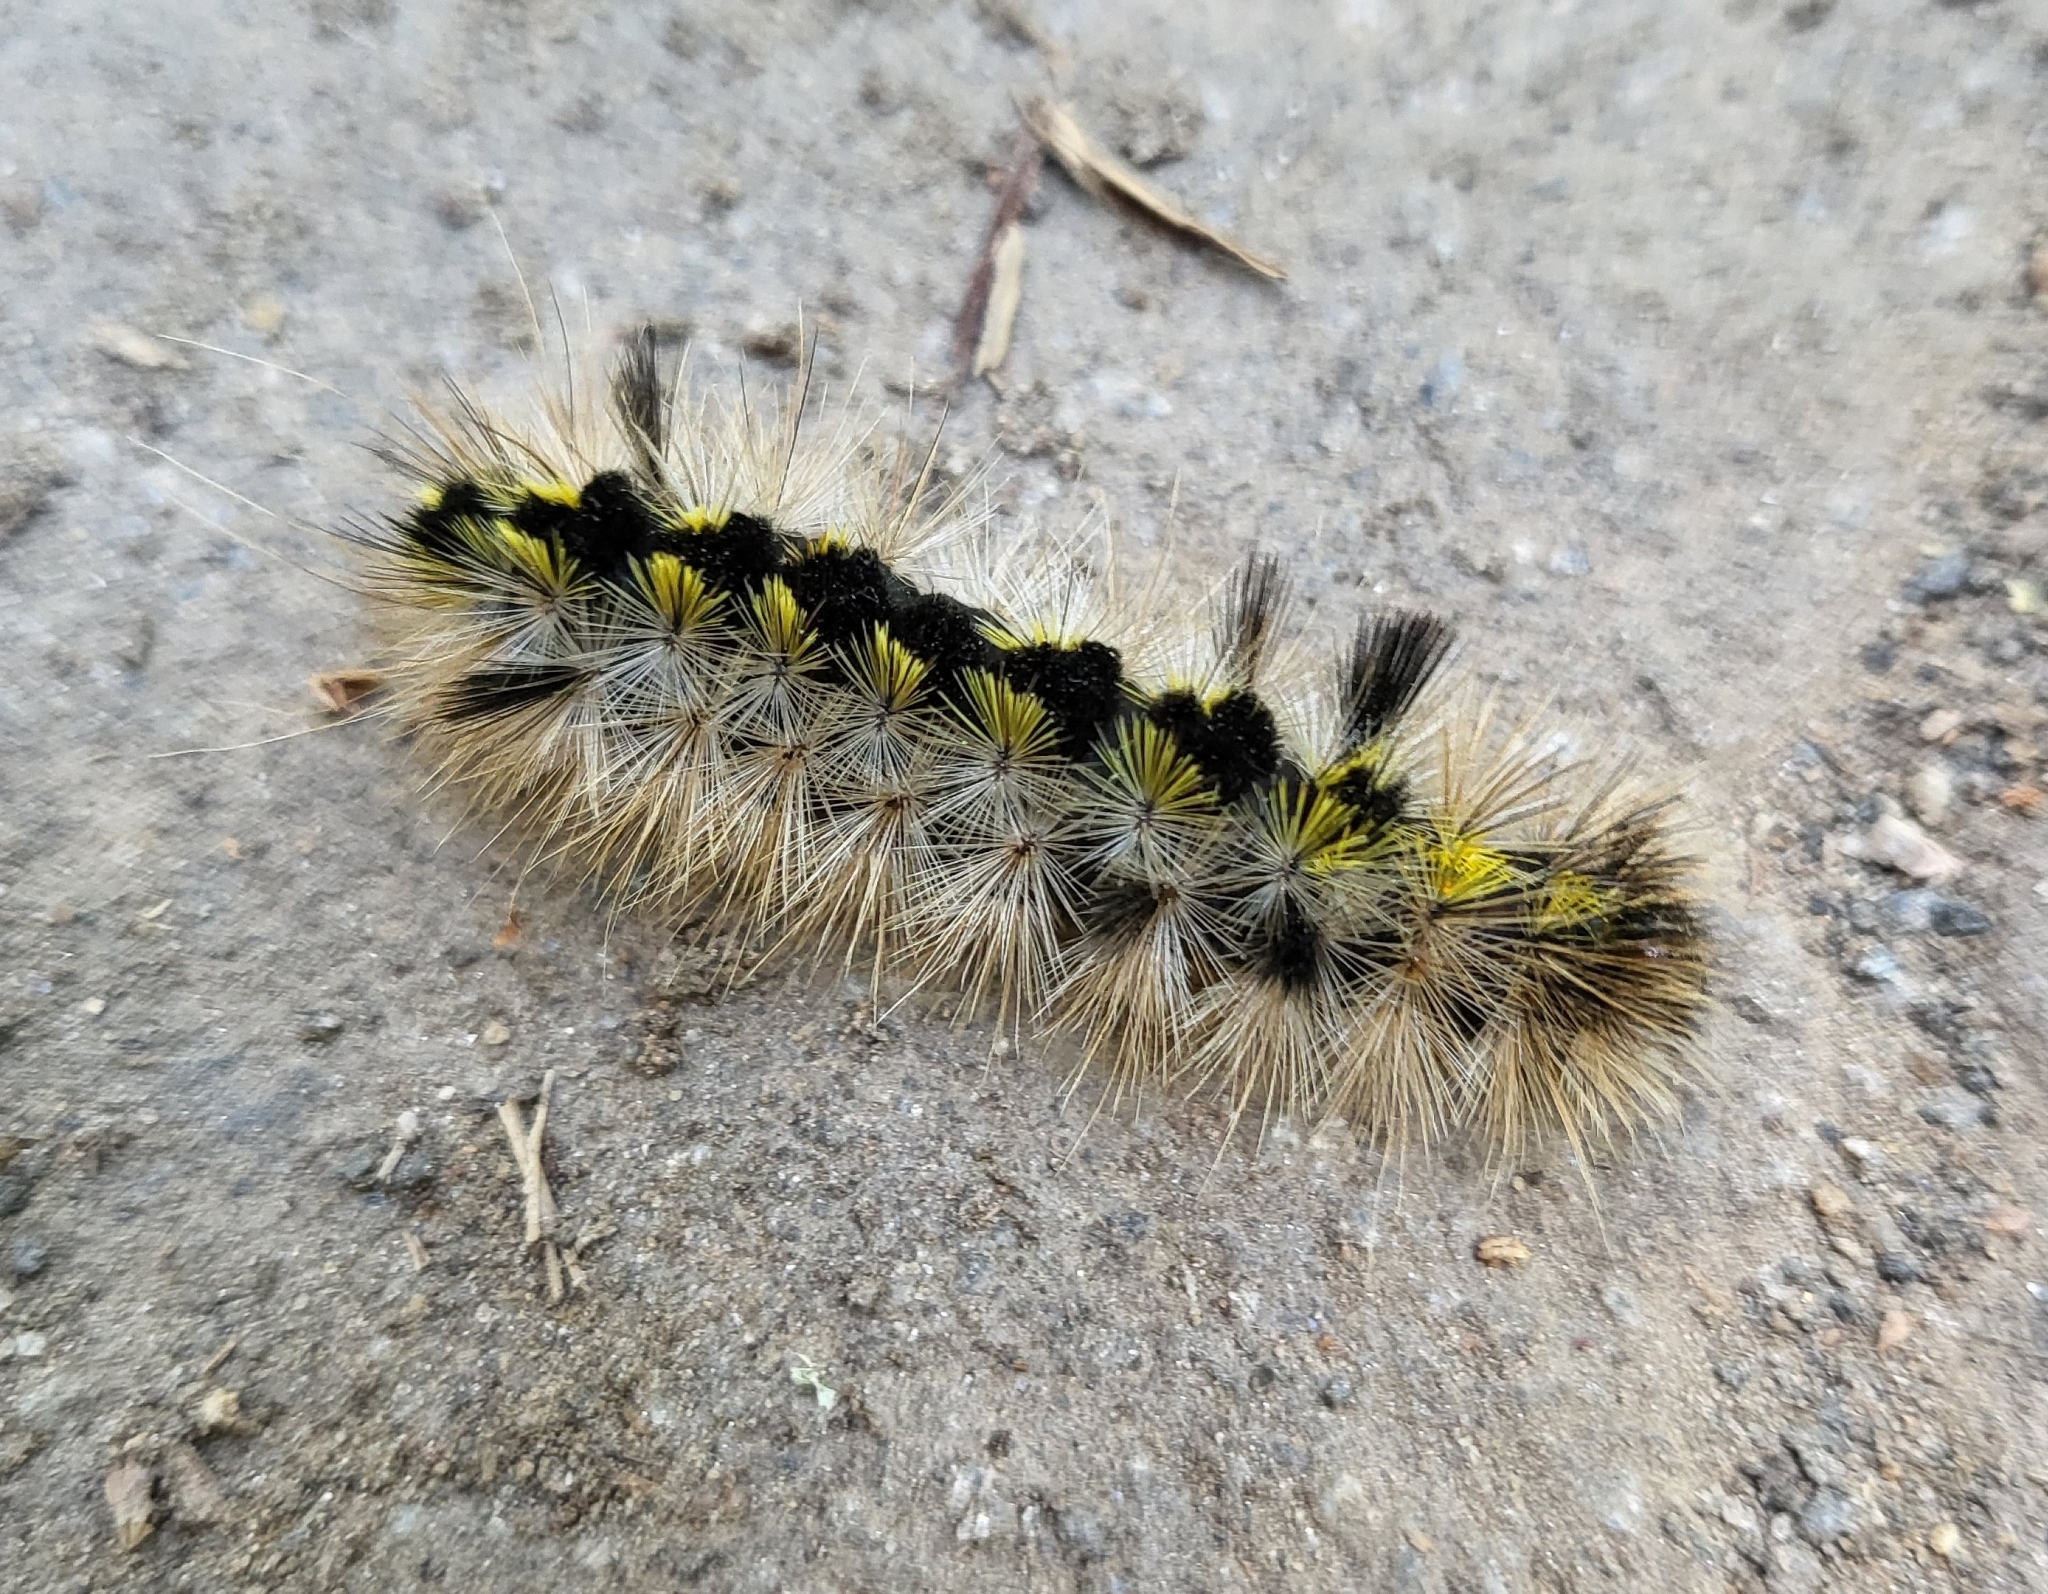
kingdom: Animalia
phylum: Arthropoda
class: Insecta
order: Lepidoptera
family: Erebidae
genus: Lophocampa
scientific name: Lophocampa argentata
